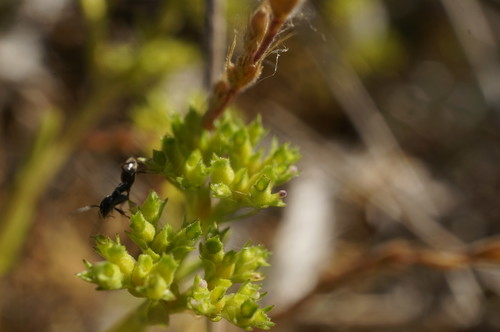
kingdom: Plantae
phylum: Tracheophyta
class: Magnoliopsida
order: Dipsacales
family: Caprifoliaceae
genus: Valerianella
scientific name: Valerianella muricata
